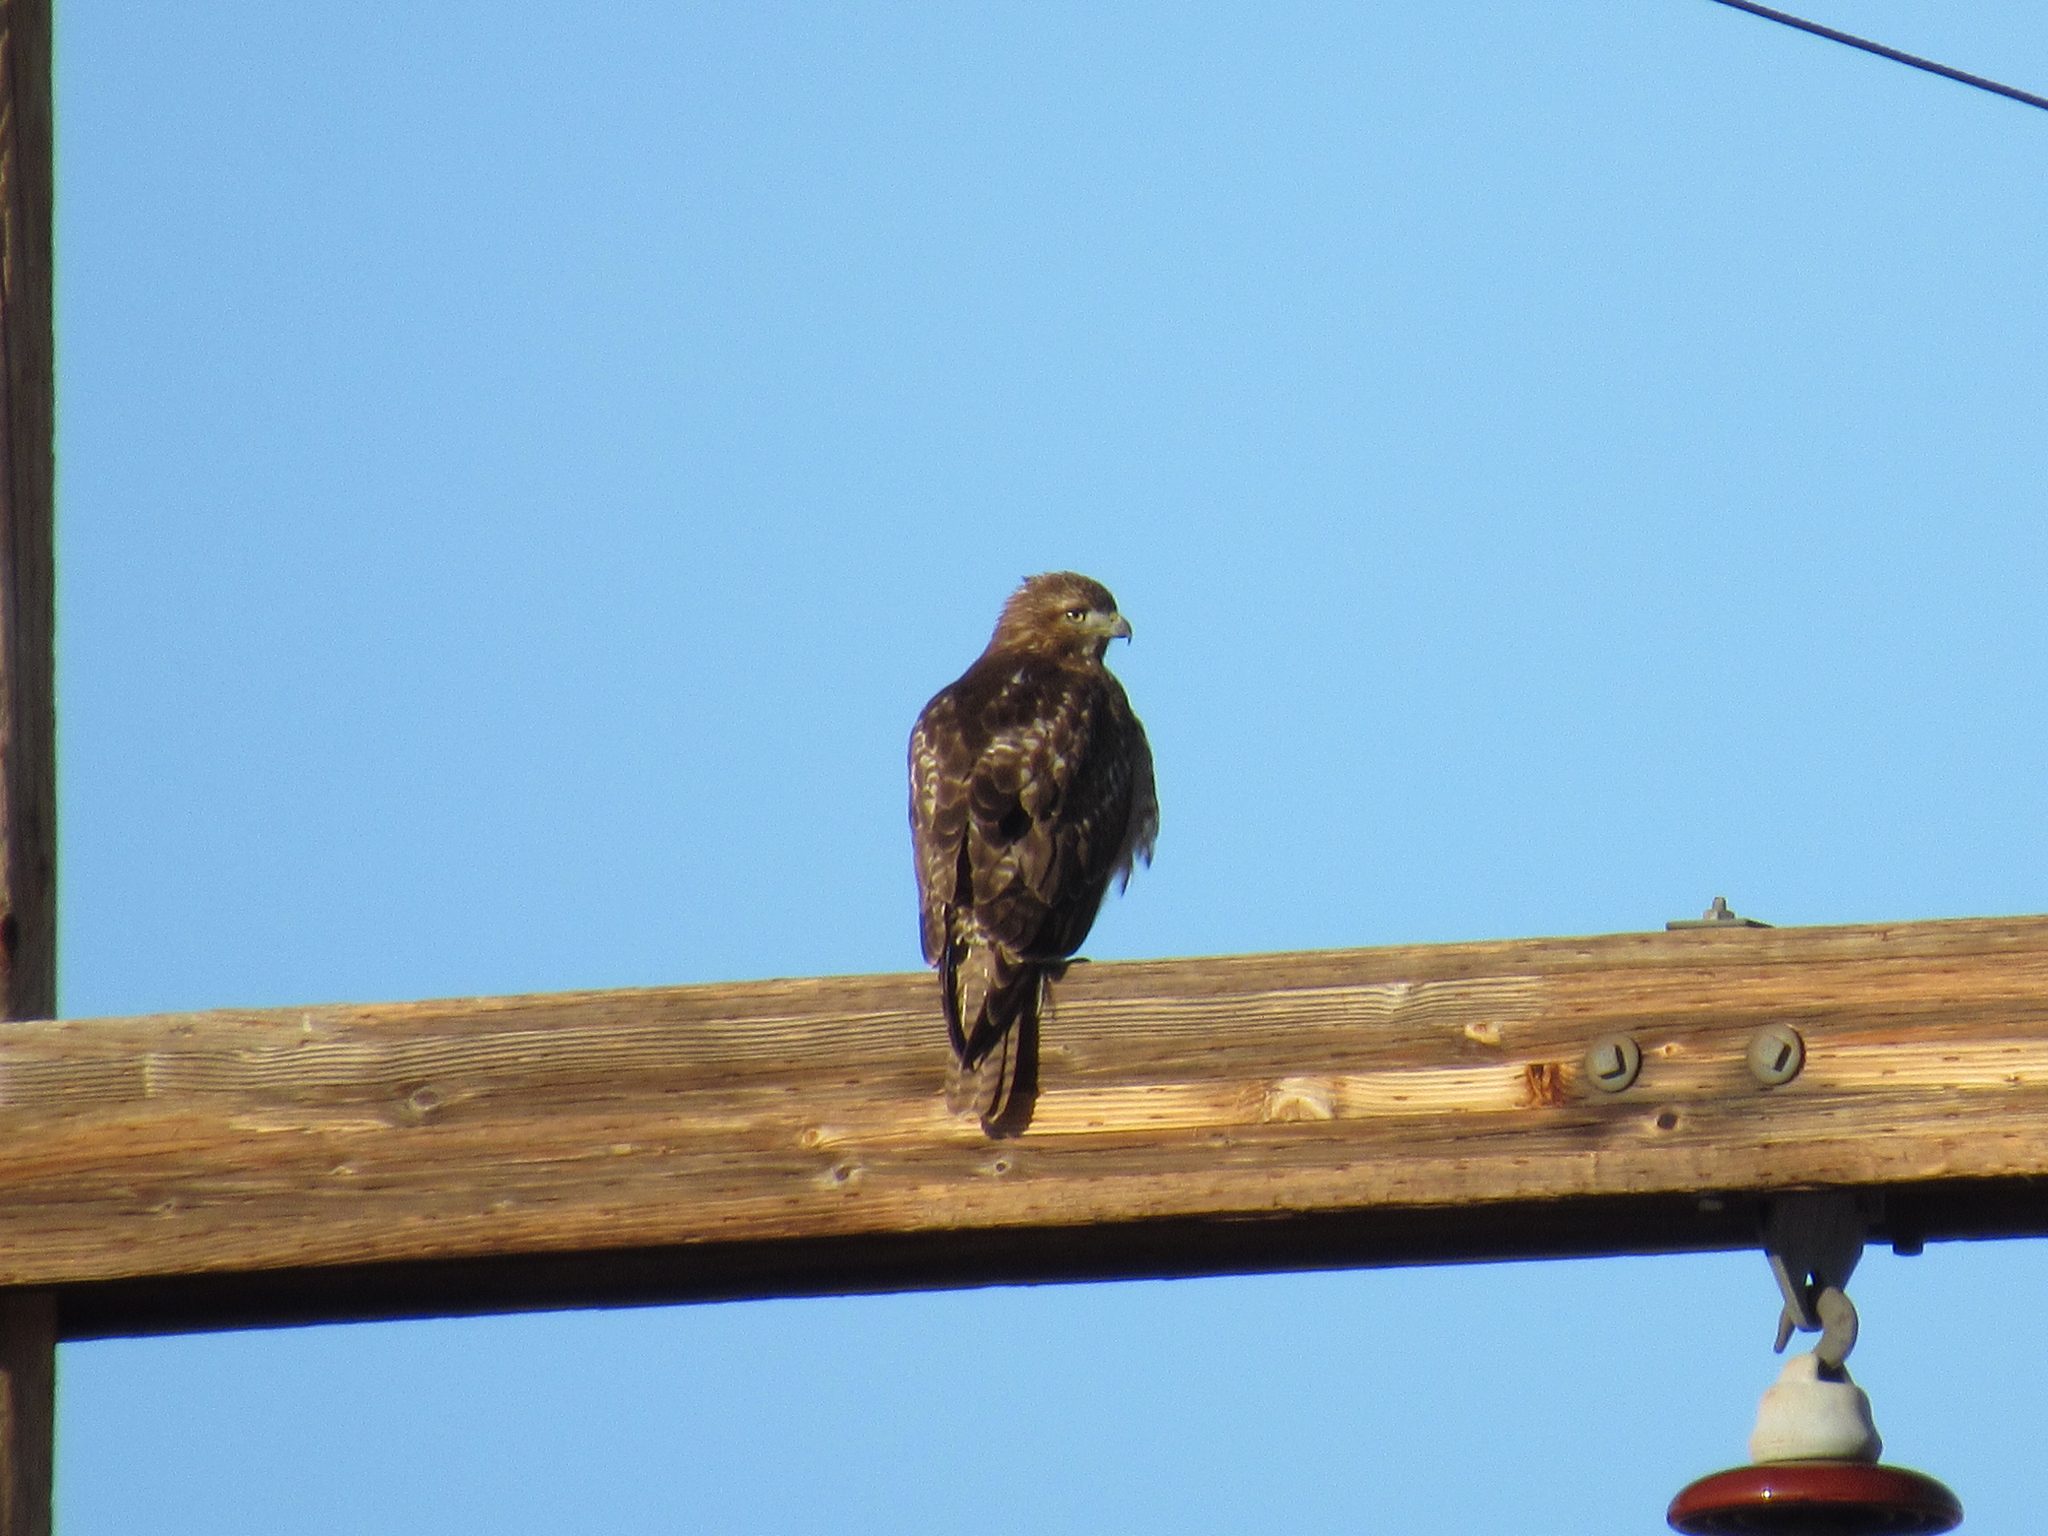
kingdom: Animalia
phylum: Chordata
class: Aves
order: Accipitriformes
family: Accipitridae
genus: Buteo
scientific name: Buteo jamaicensis
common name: Red-tailed hawk
